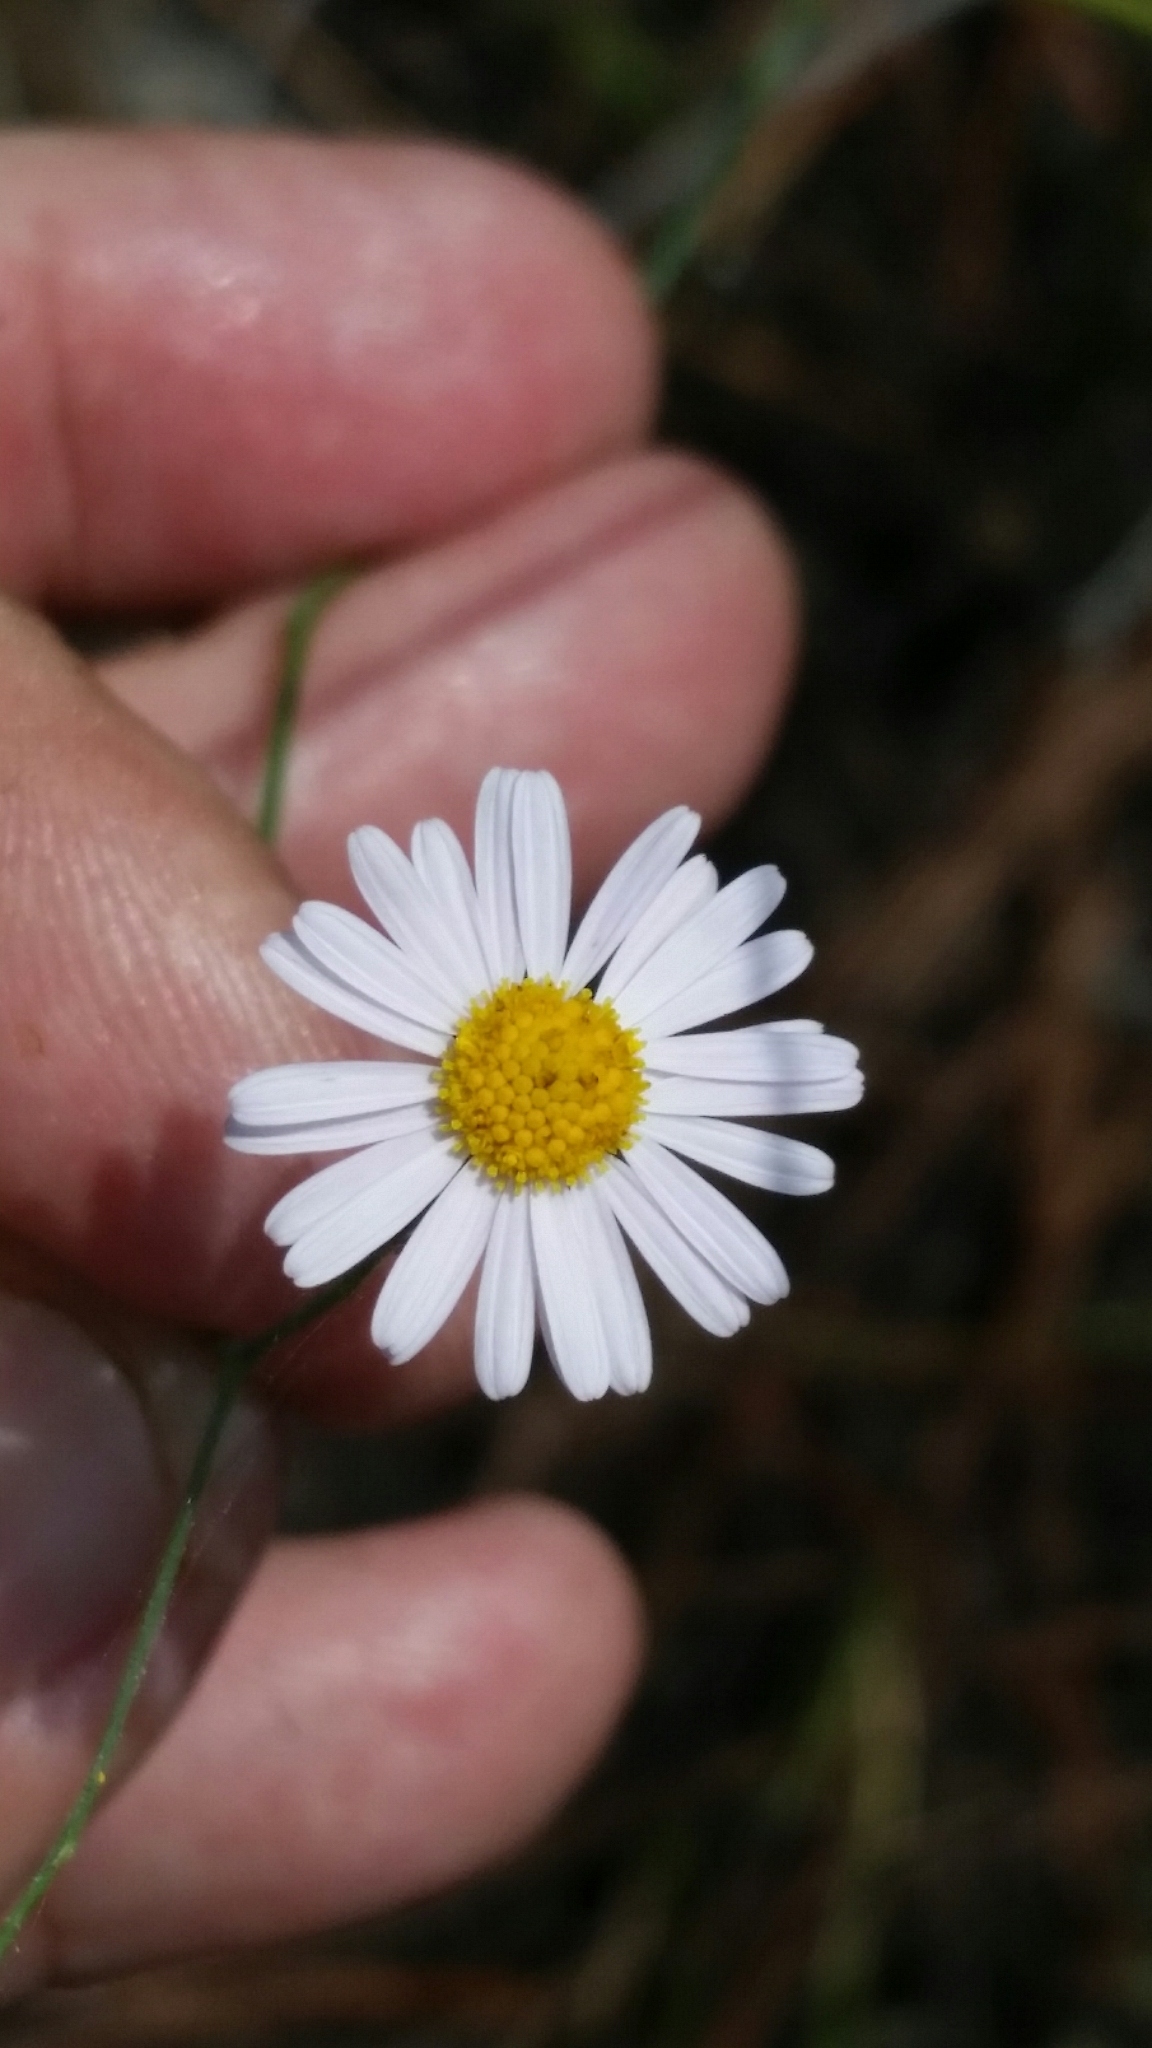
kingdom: Plantae
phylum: Tracheophyta
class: Magnoliopsida
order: Asterales
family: Asteraceae
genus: Boltonia
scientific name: Boltonia diffusa
